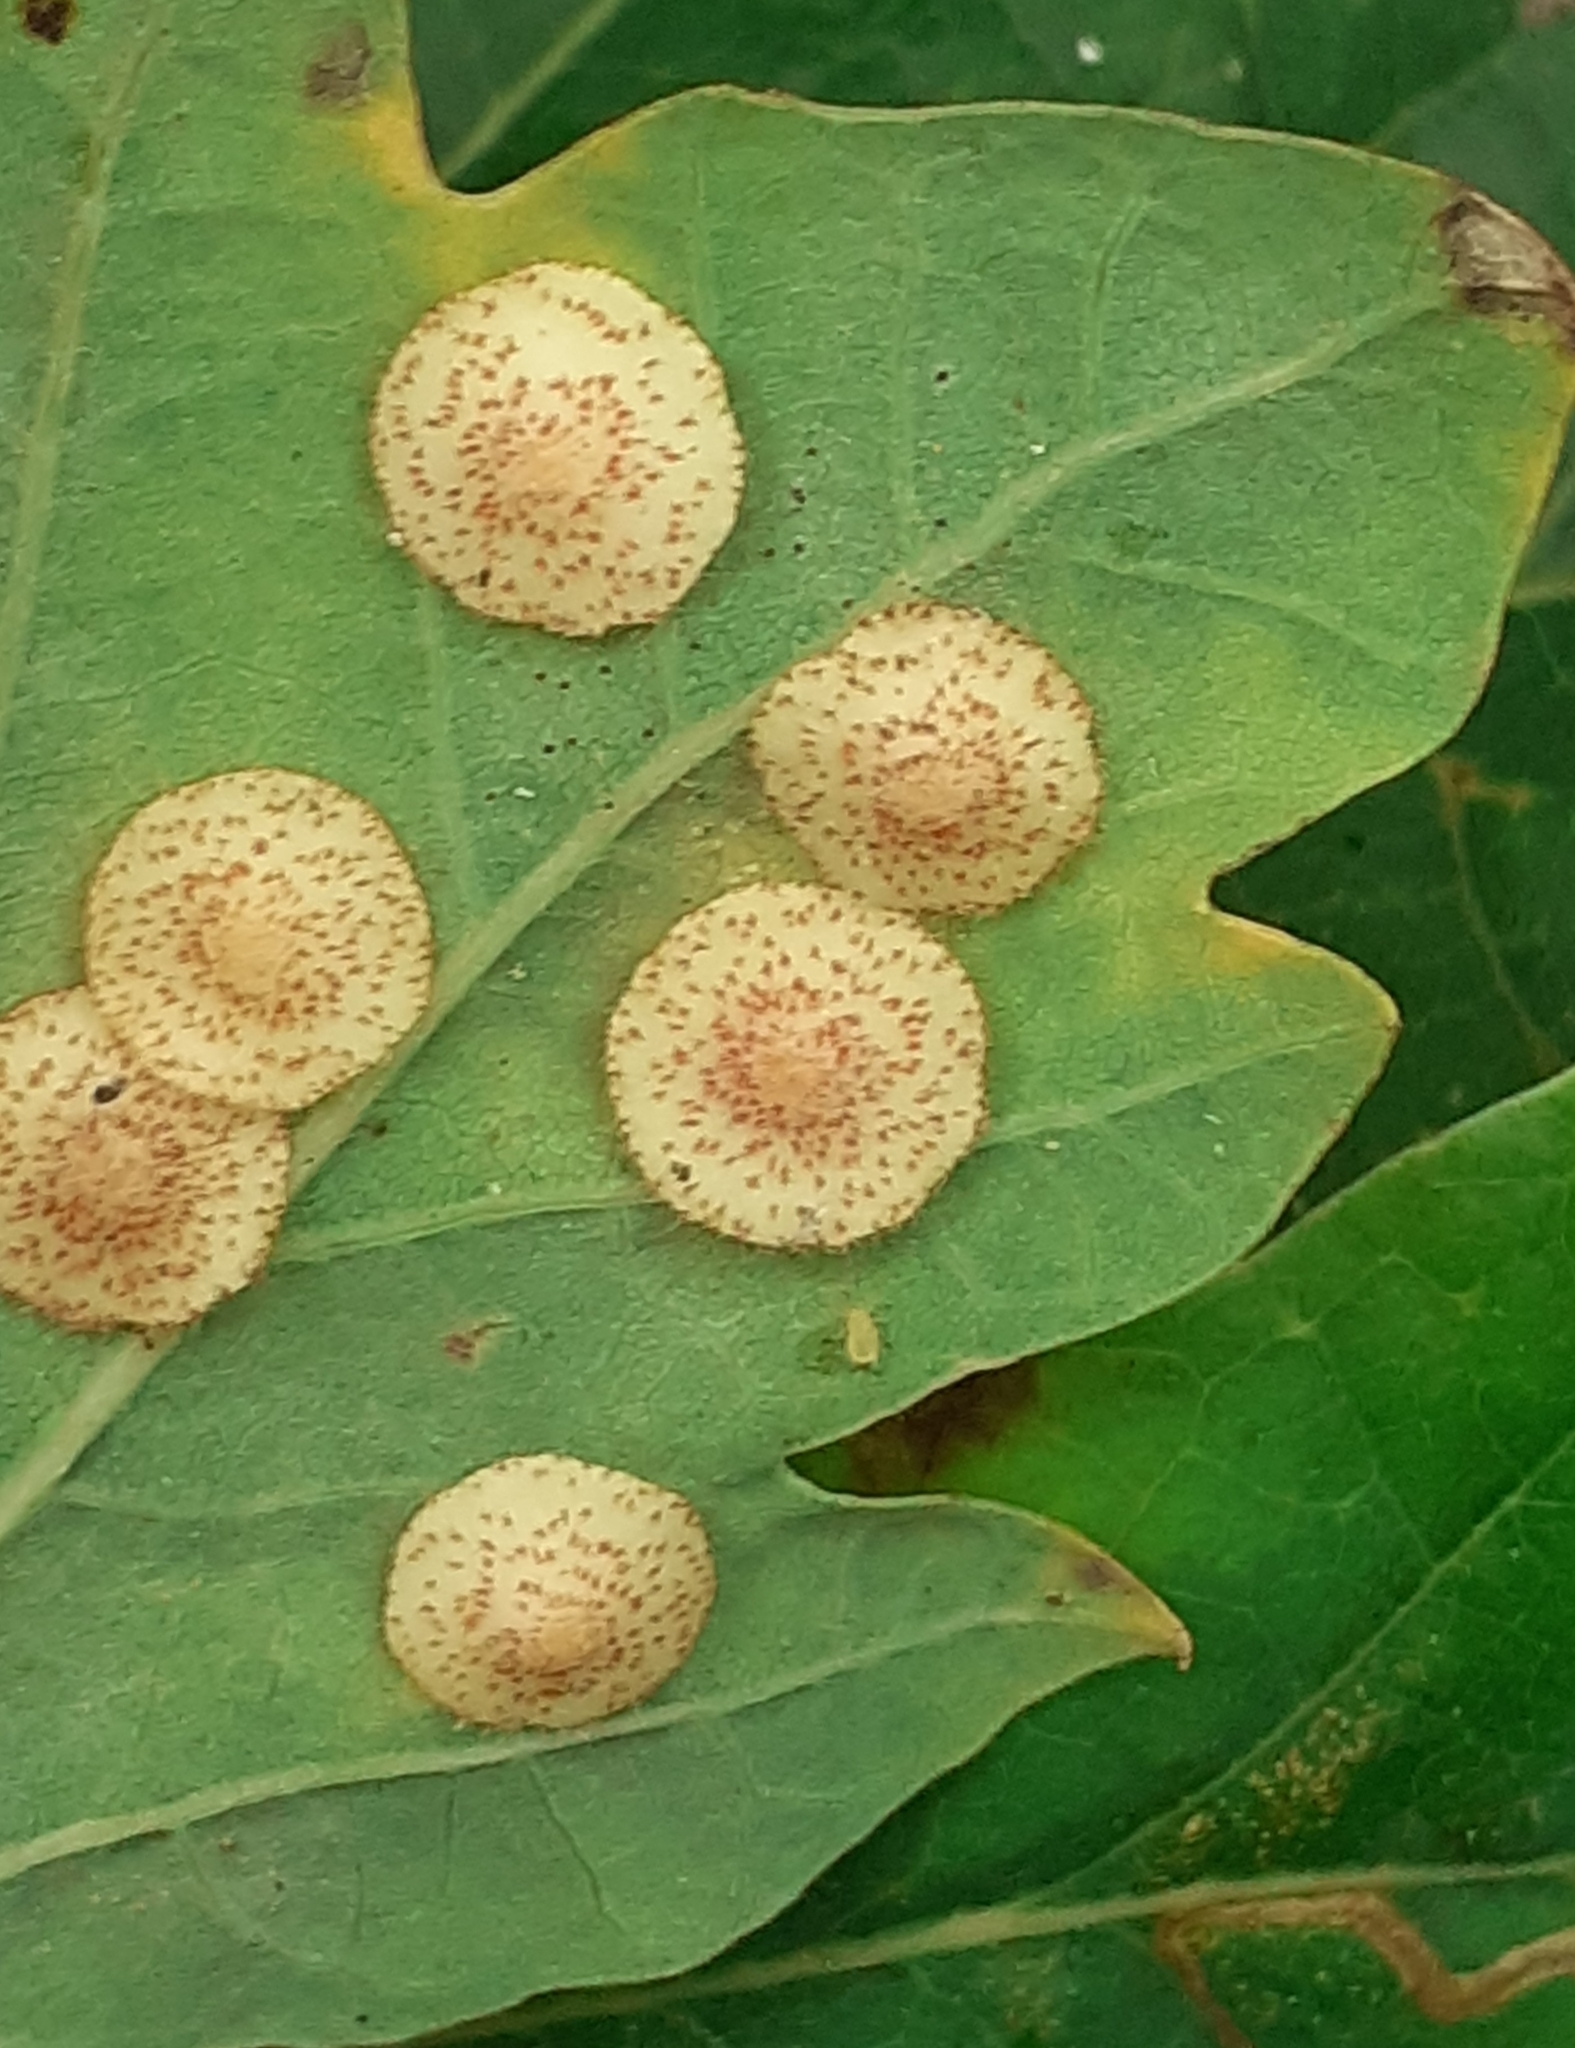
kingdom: Animalia
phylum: Arthropoda
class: Insecta
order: Hymenoptera
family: Cynipidae
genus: Neuroterus
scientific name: Neuroterus quercusbaccarum
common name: Common spangle gall
